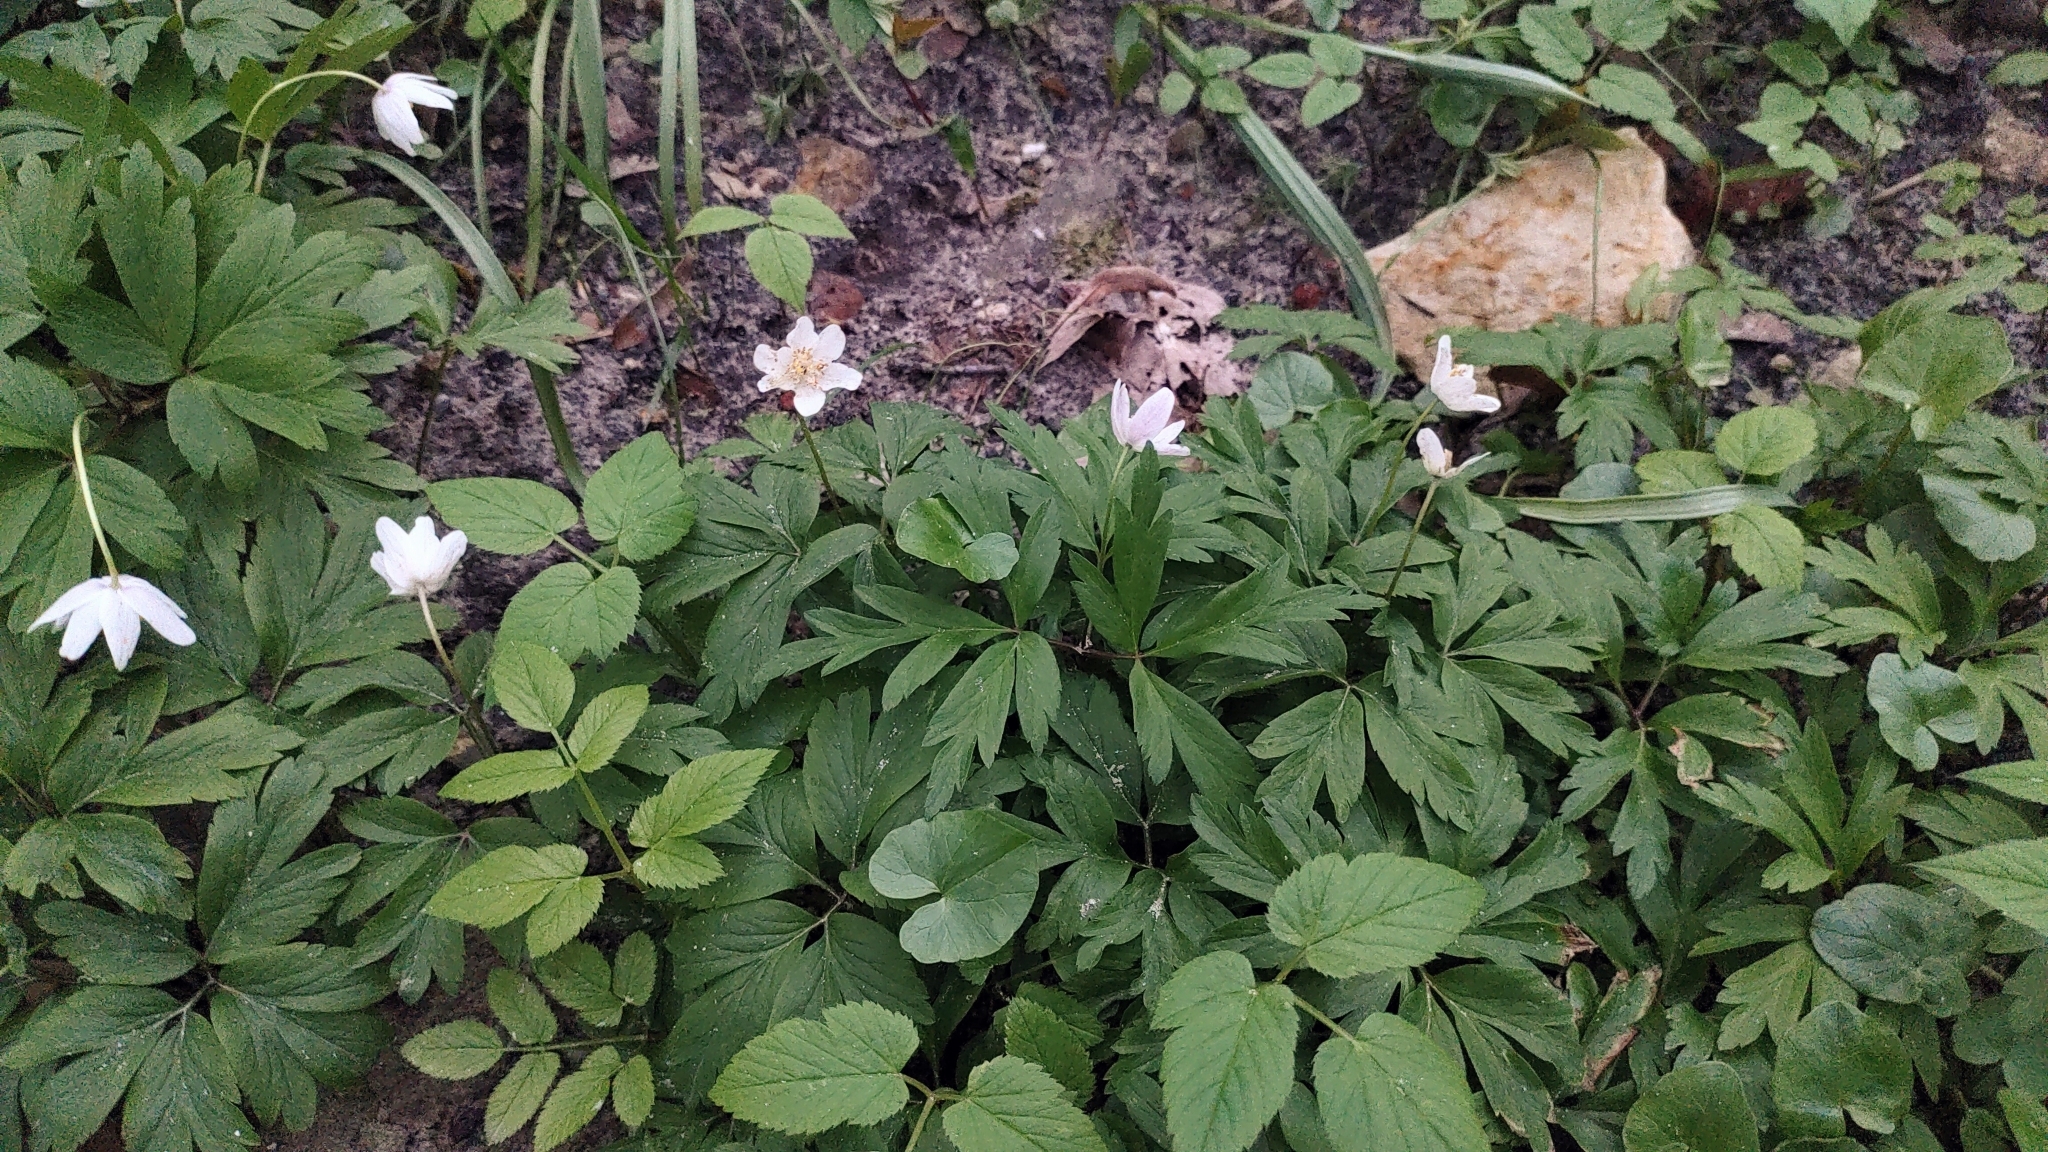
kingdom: Plantae
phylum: Tracheophyta
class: Magnoliopsida
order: Ranunculales
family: Ranunculaceae
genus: Anemone
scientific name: Anemone nemorosa
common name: Wood anemone
